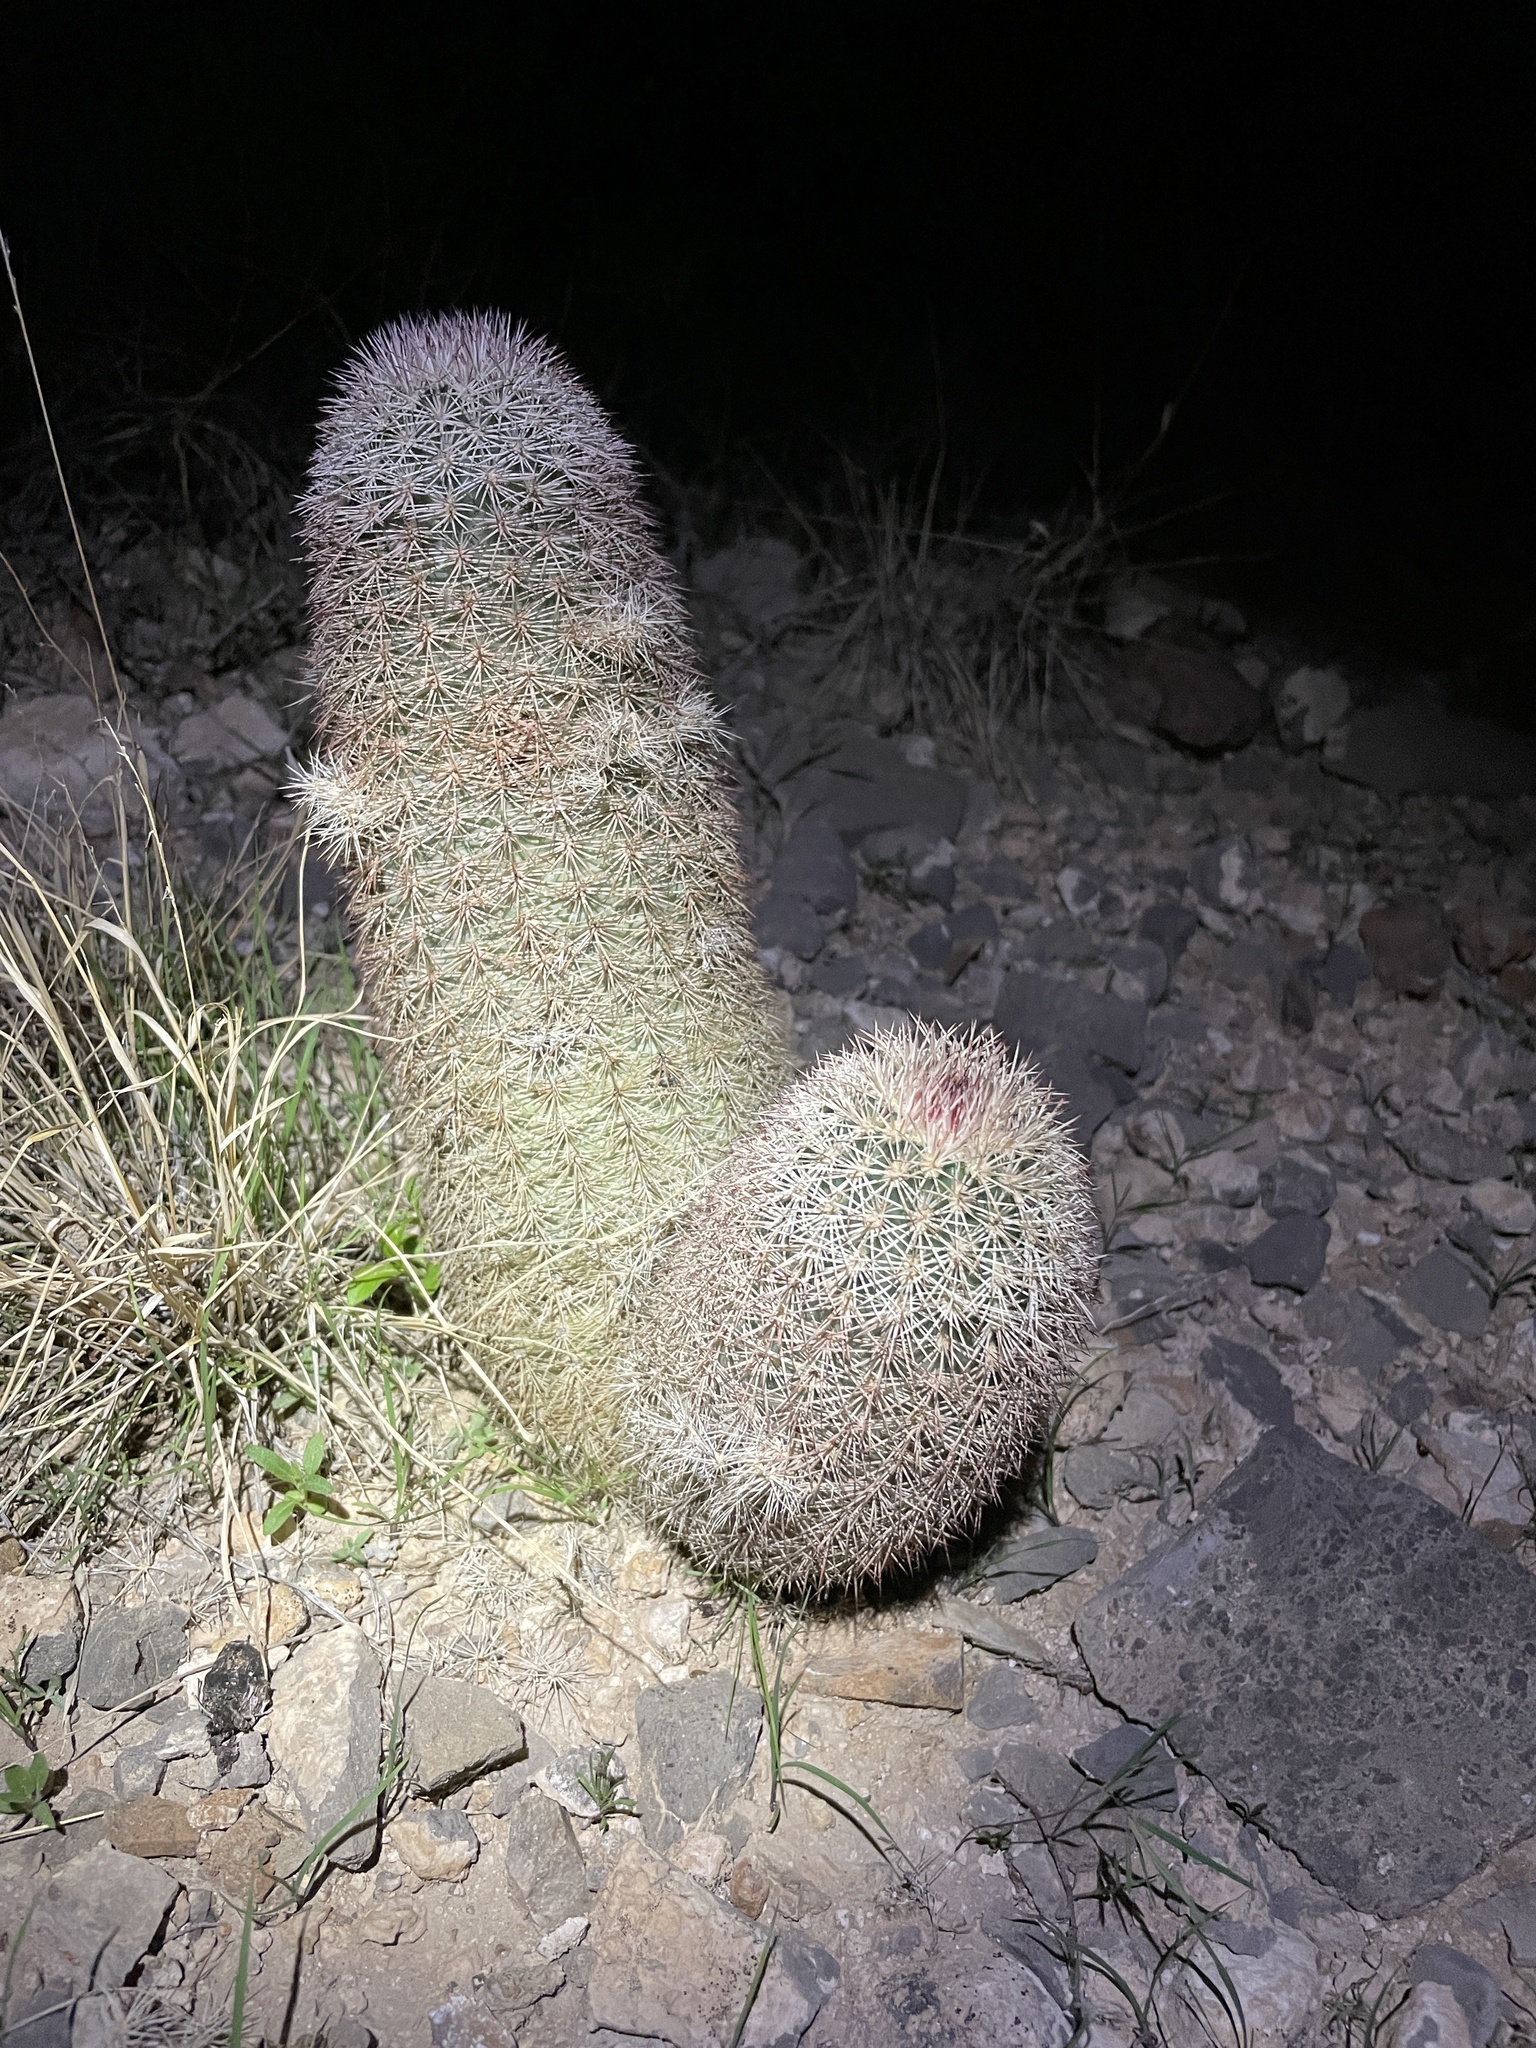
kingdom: Plantae
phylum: Tracheophyta
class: Magnoliopsida
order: Caryophyllales
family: Cactaceae
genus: Echinocereus
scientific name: Echinocereus dasyacanthus
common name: Spiny hedgehog cactus
